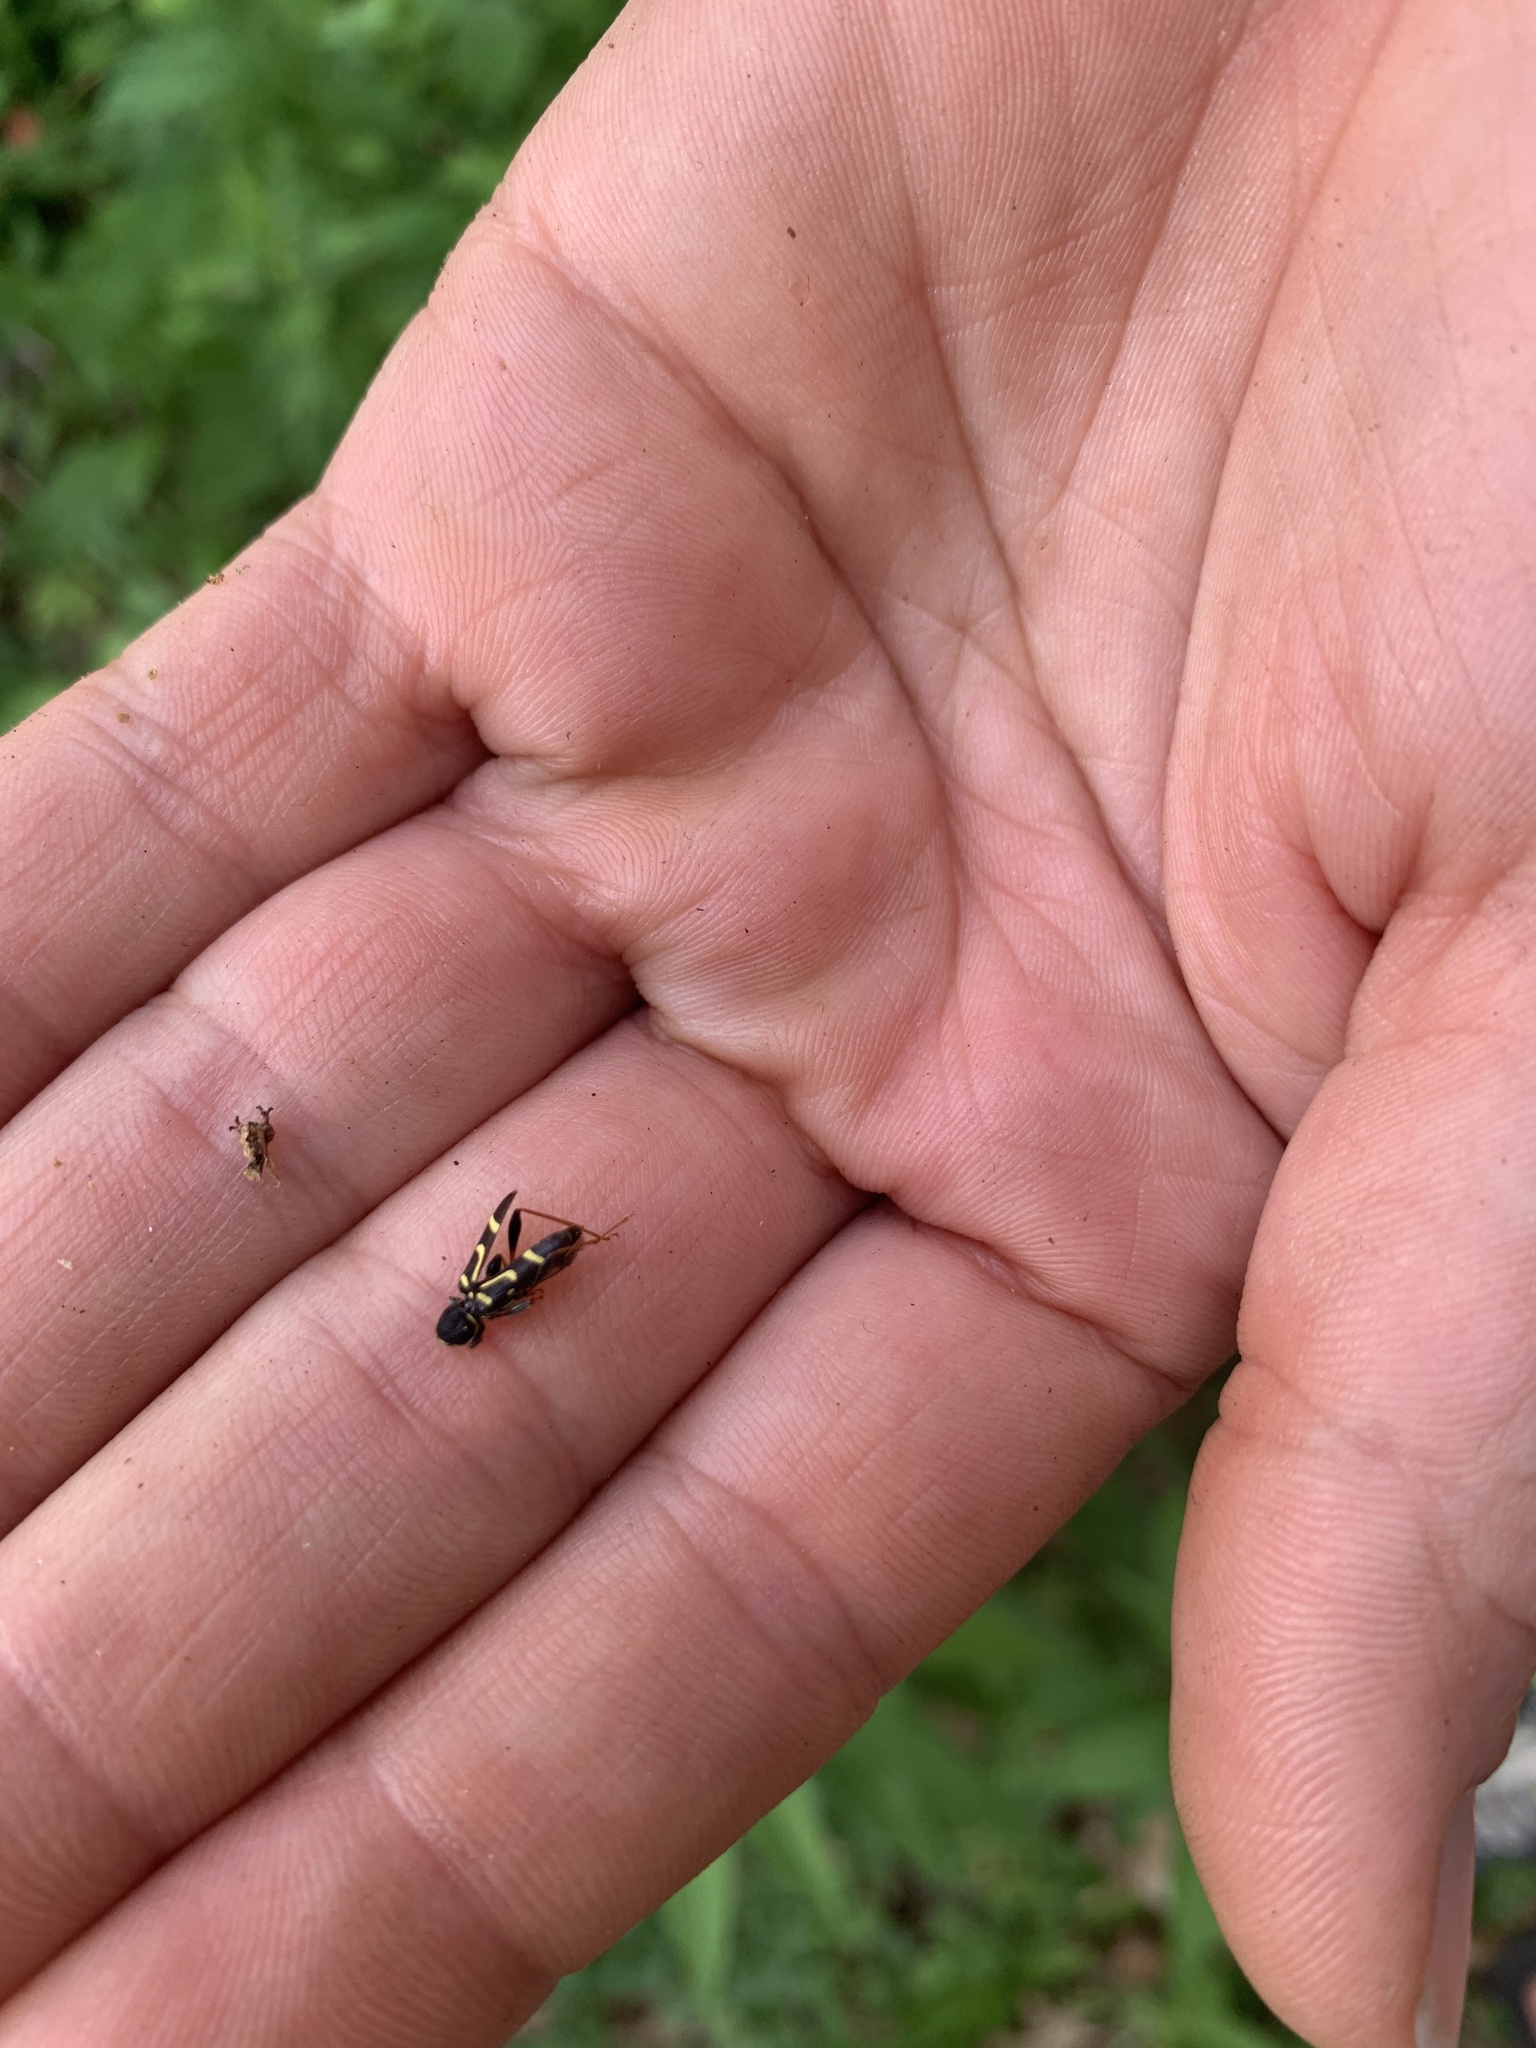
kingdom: Animalia
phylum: Arthropoda
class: Insecta
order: Coleoptera
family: Cerambycidae
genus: Clytus
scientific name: Clytus ruricola
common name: Round-necked longhorn beetle
